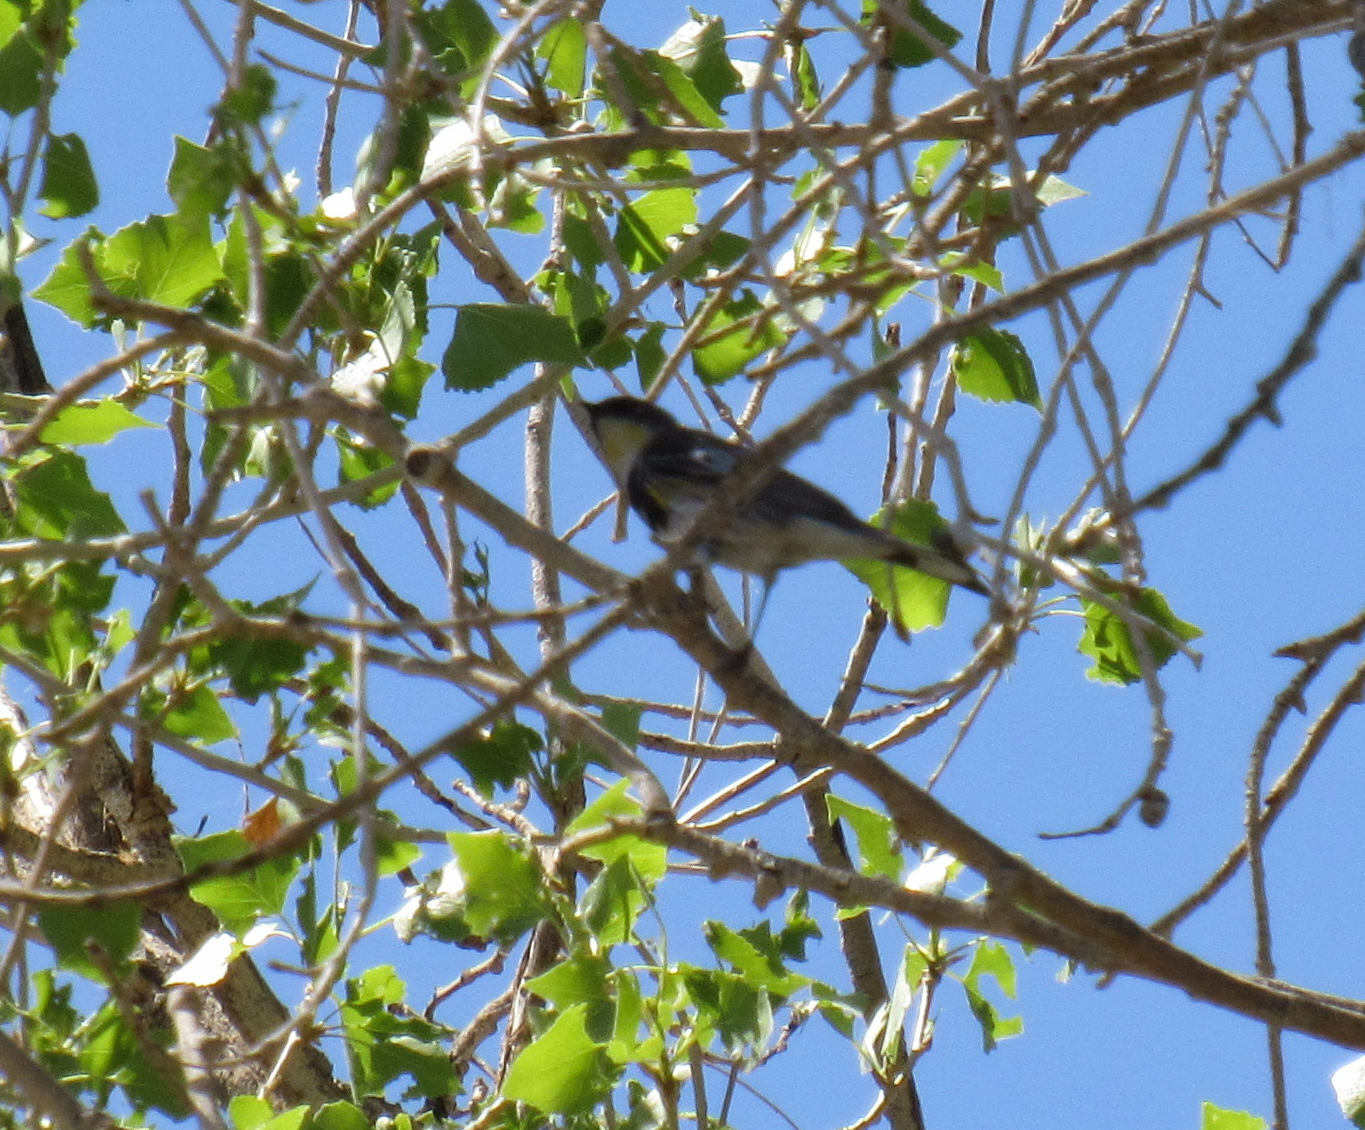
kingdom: Animalia
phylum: Chordata
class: Aves
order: Passeriformes
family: Parulidae
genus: Setophaga
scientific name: Setophaga coronata
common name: Myrtle warbler
